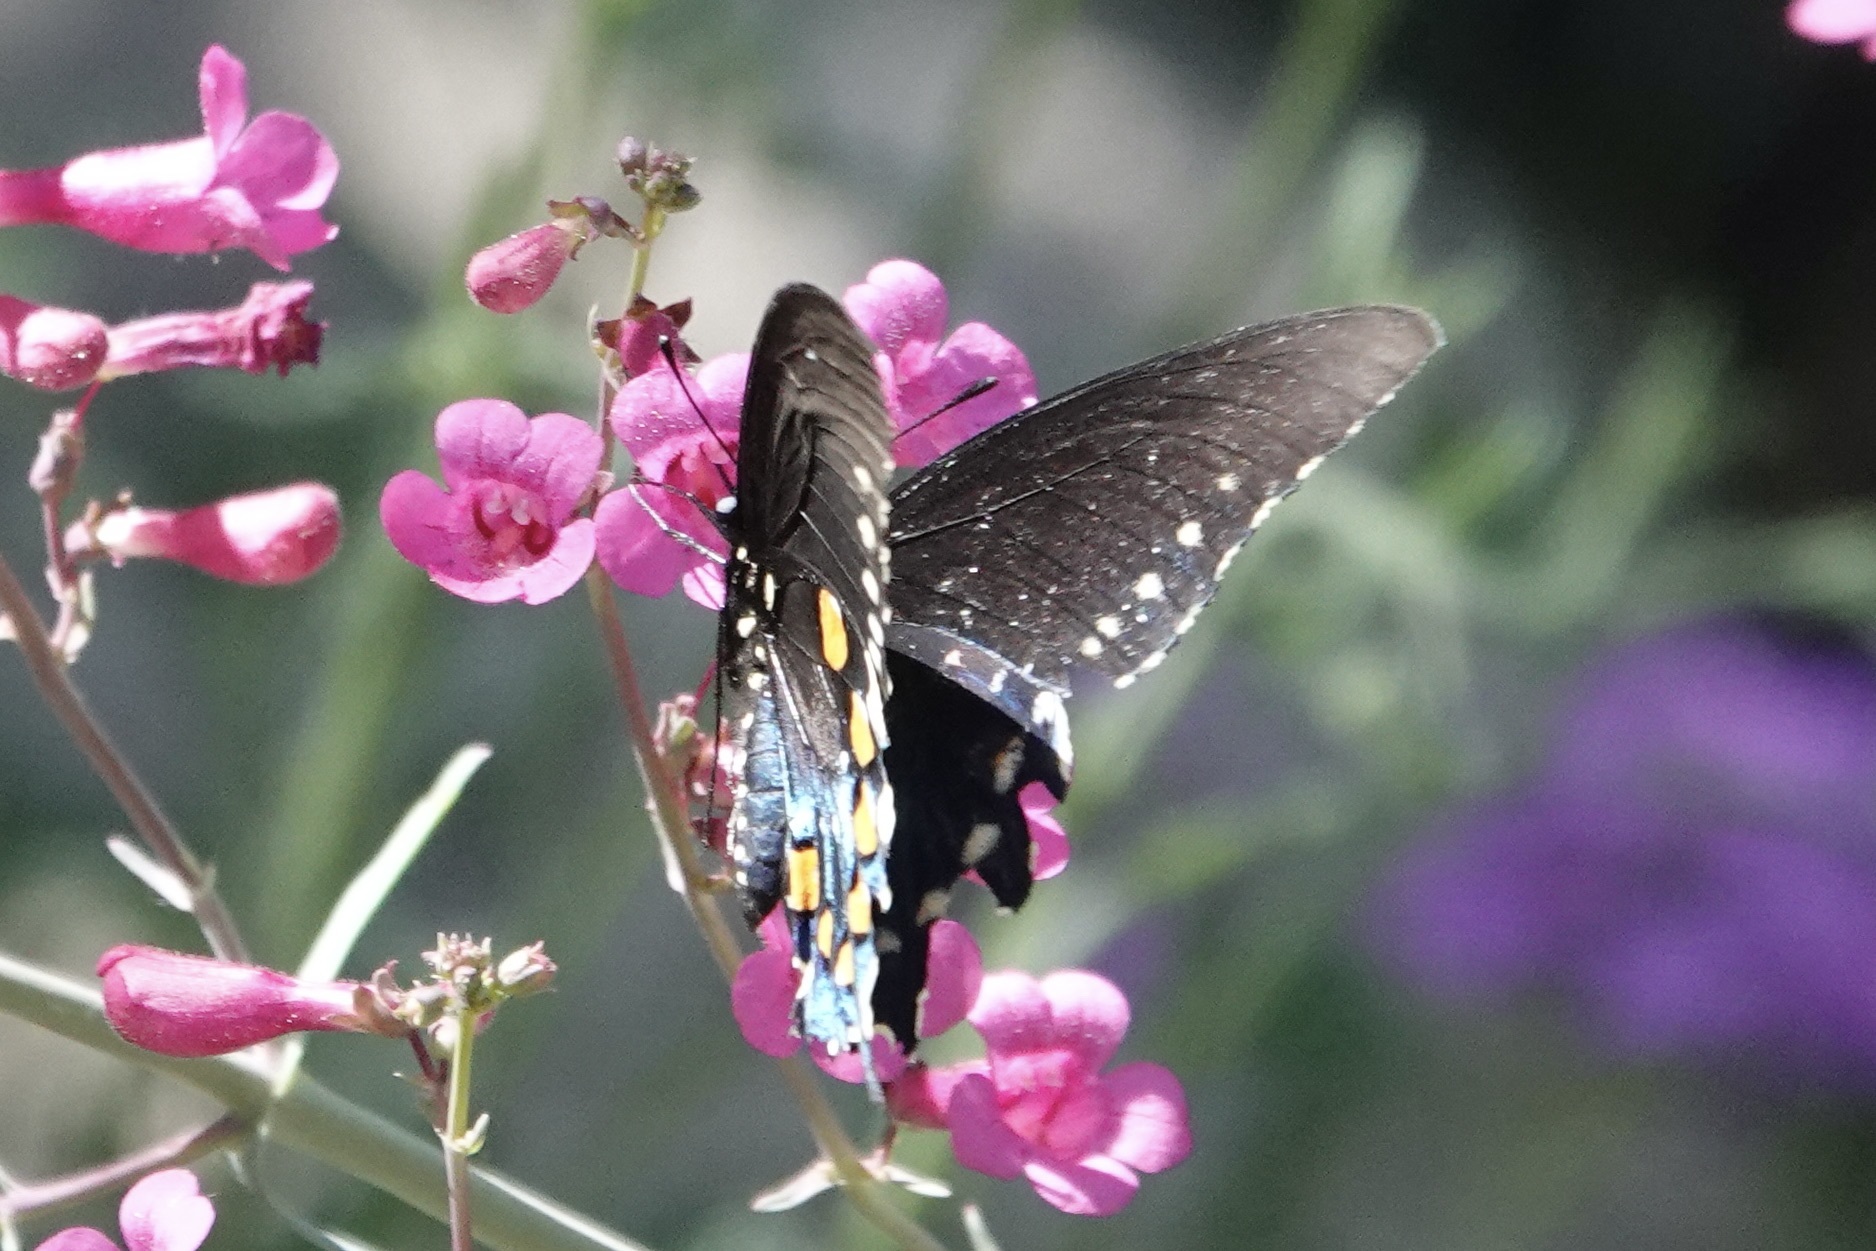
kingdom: Animalia
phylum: Arthropoda
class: Insecta
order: Lepidoptera
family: Papilionidae
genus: Battus
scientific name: Battus philenor
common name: Pipevine swallowtail
